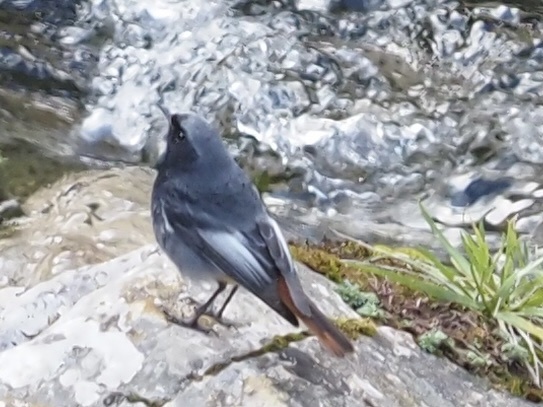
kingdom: Animalia
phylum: Chordata
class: Aves
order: Passeriformes
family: Muscicapidae
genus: Phoenicurus
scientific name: Phoenicurus ochruros
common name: Black redstart
